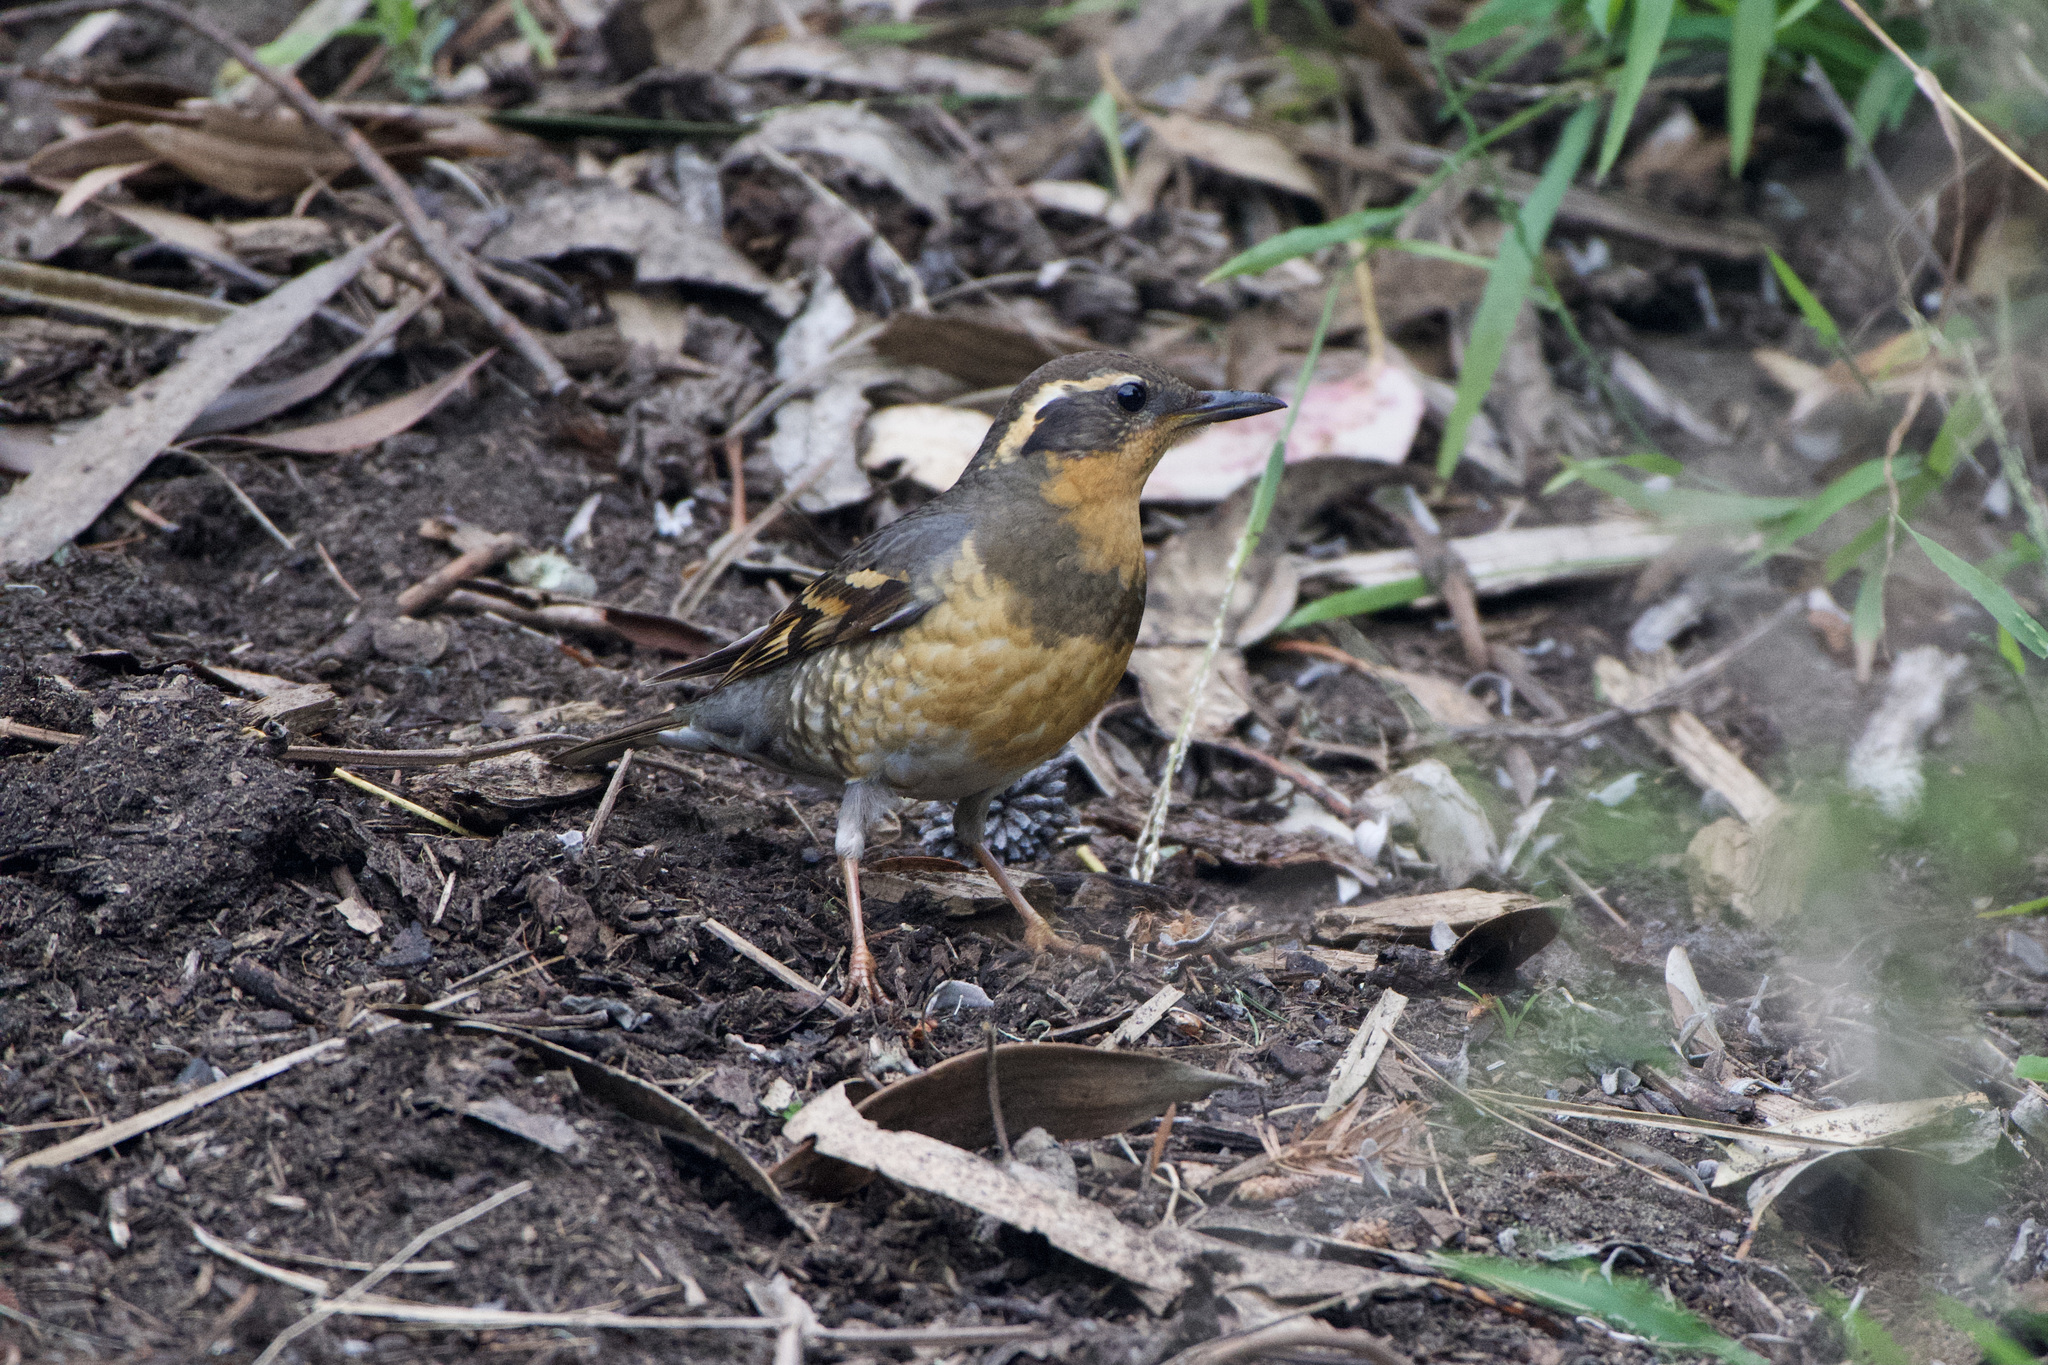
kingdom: Animalia
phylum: Chordata
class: Aves
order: Passeriformes
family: Turdidae
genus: Ixoreus
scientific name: Ixoreus naevius
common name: Varied thrush
